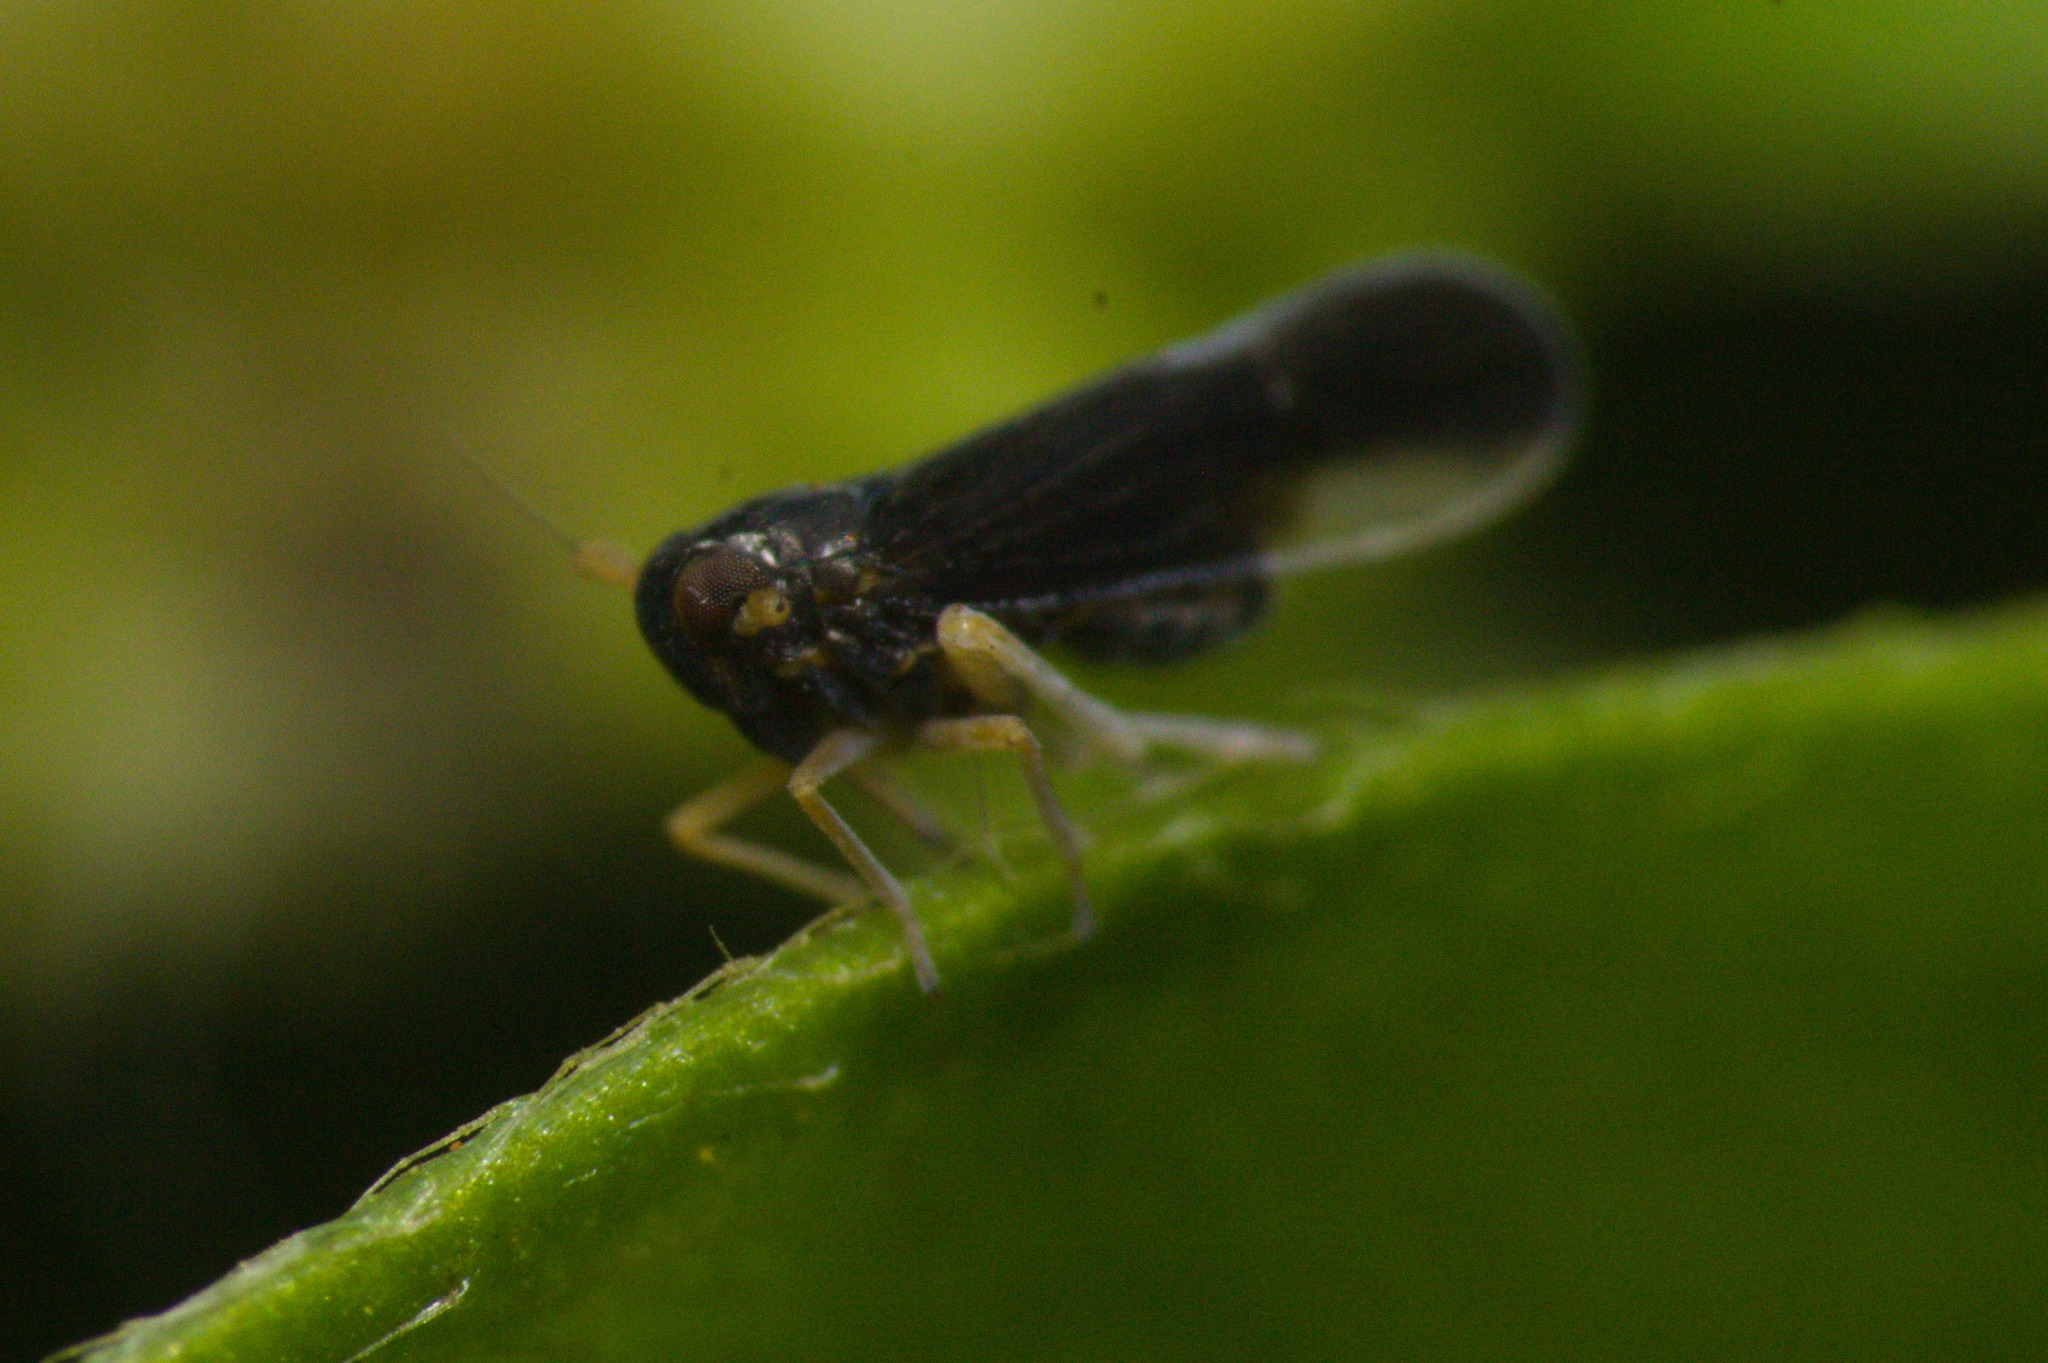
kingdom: Animalia
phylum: Arthropoda
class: Insecta
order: Hemiptera
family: Delphacidae
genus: Caenodelphax
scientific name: Caenodelphax teapae
